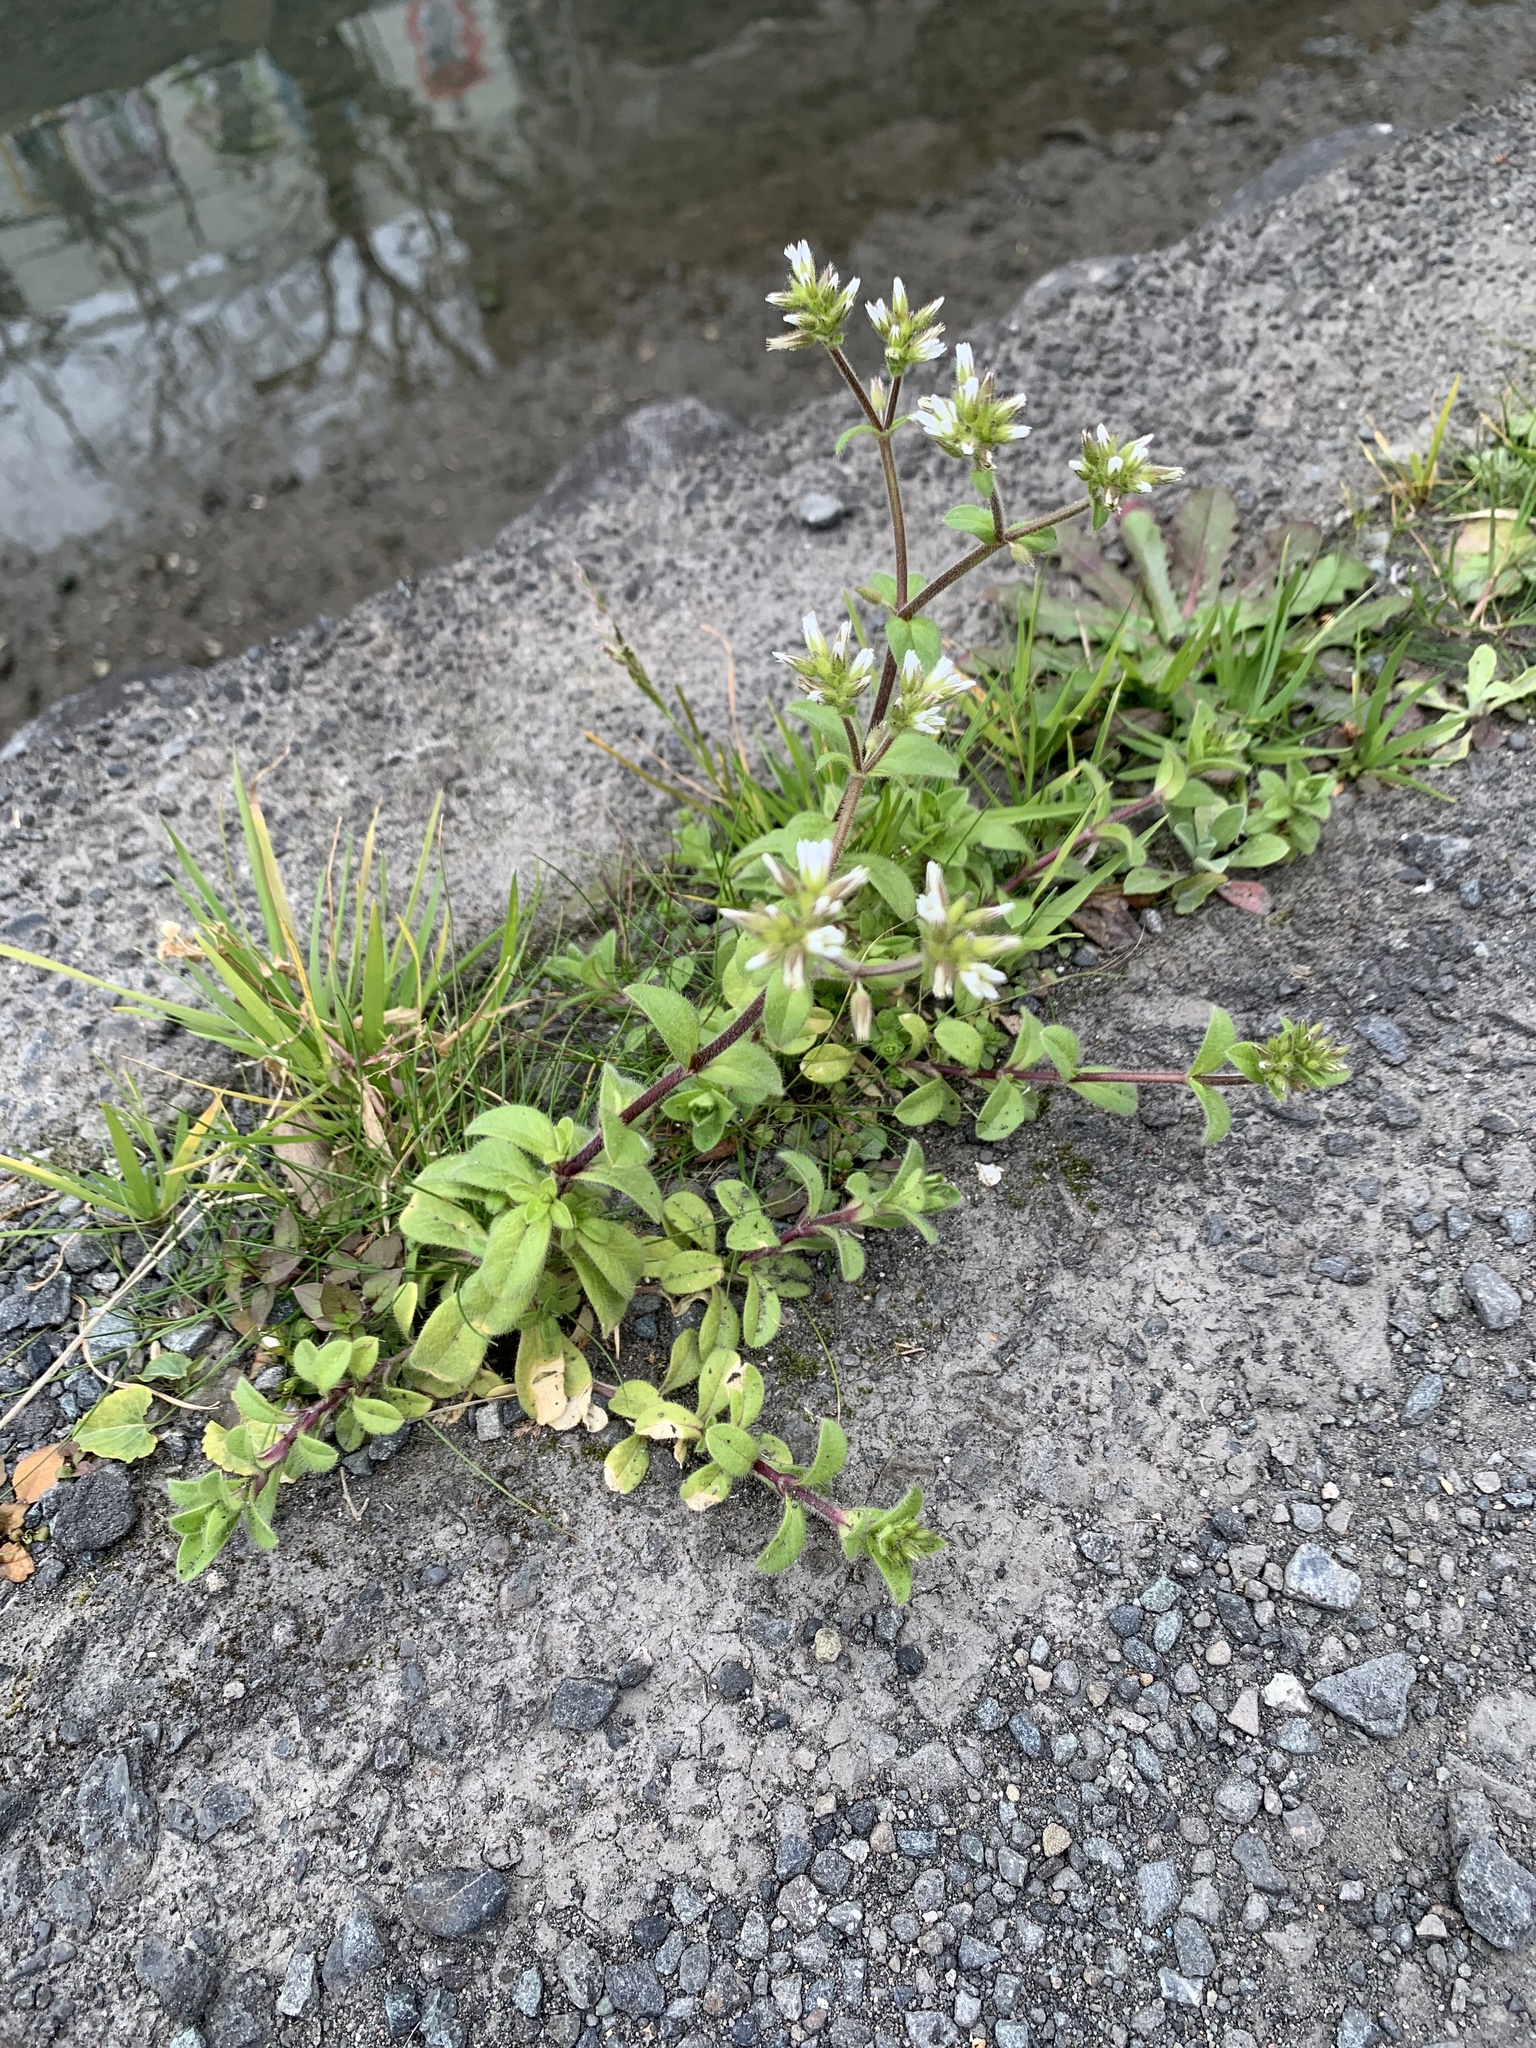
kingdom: Plantae
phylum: Tracheophyta
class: Magnoliopsida
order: Caryophyllales
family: Caryophyllaceae
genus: Cerastium
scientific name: Cerastium glomeratum
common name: Sticky chickweed
